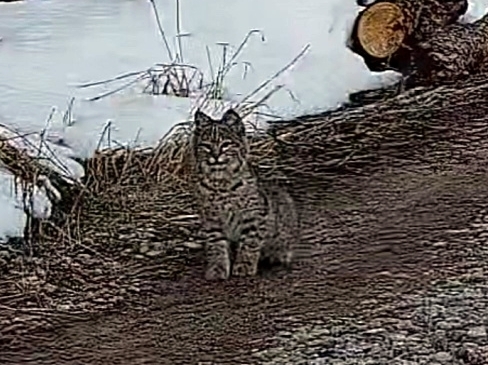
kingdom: Animalia
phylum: Chordata
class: Mammalia
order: Carnivora
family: Felidae
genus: Lynx
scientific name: Lynx rufus
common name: Bobcat
